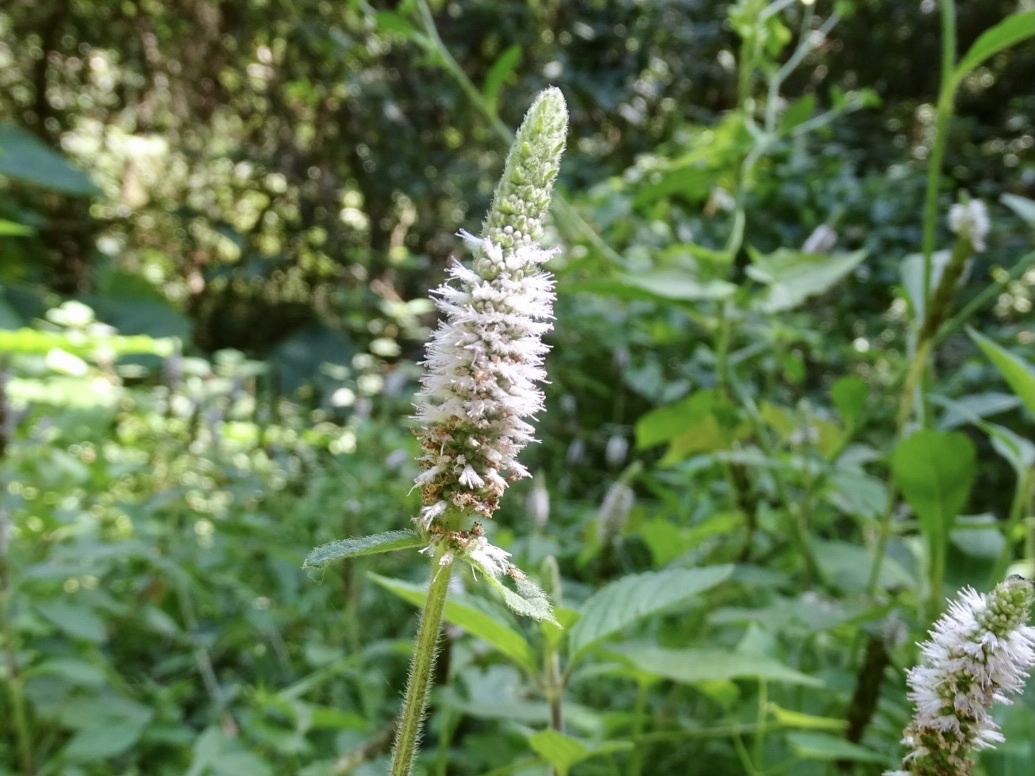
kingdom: Plantae
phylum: Tracheophyta
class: Magnoliopsida
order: Lamiales
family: Lamiaceae
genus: Pogostemon
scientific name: Pogostemon auricularius
